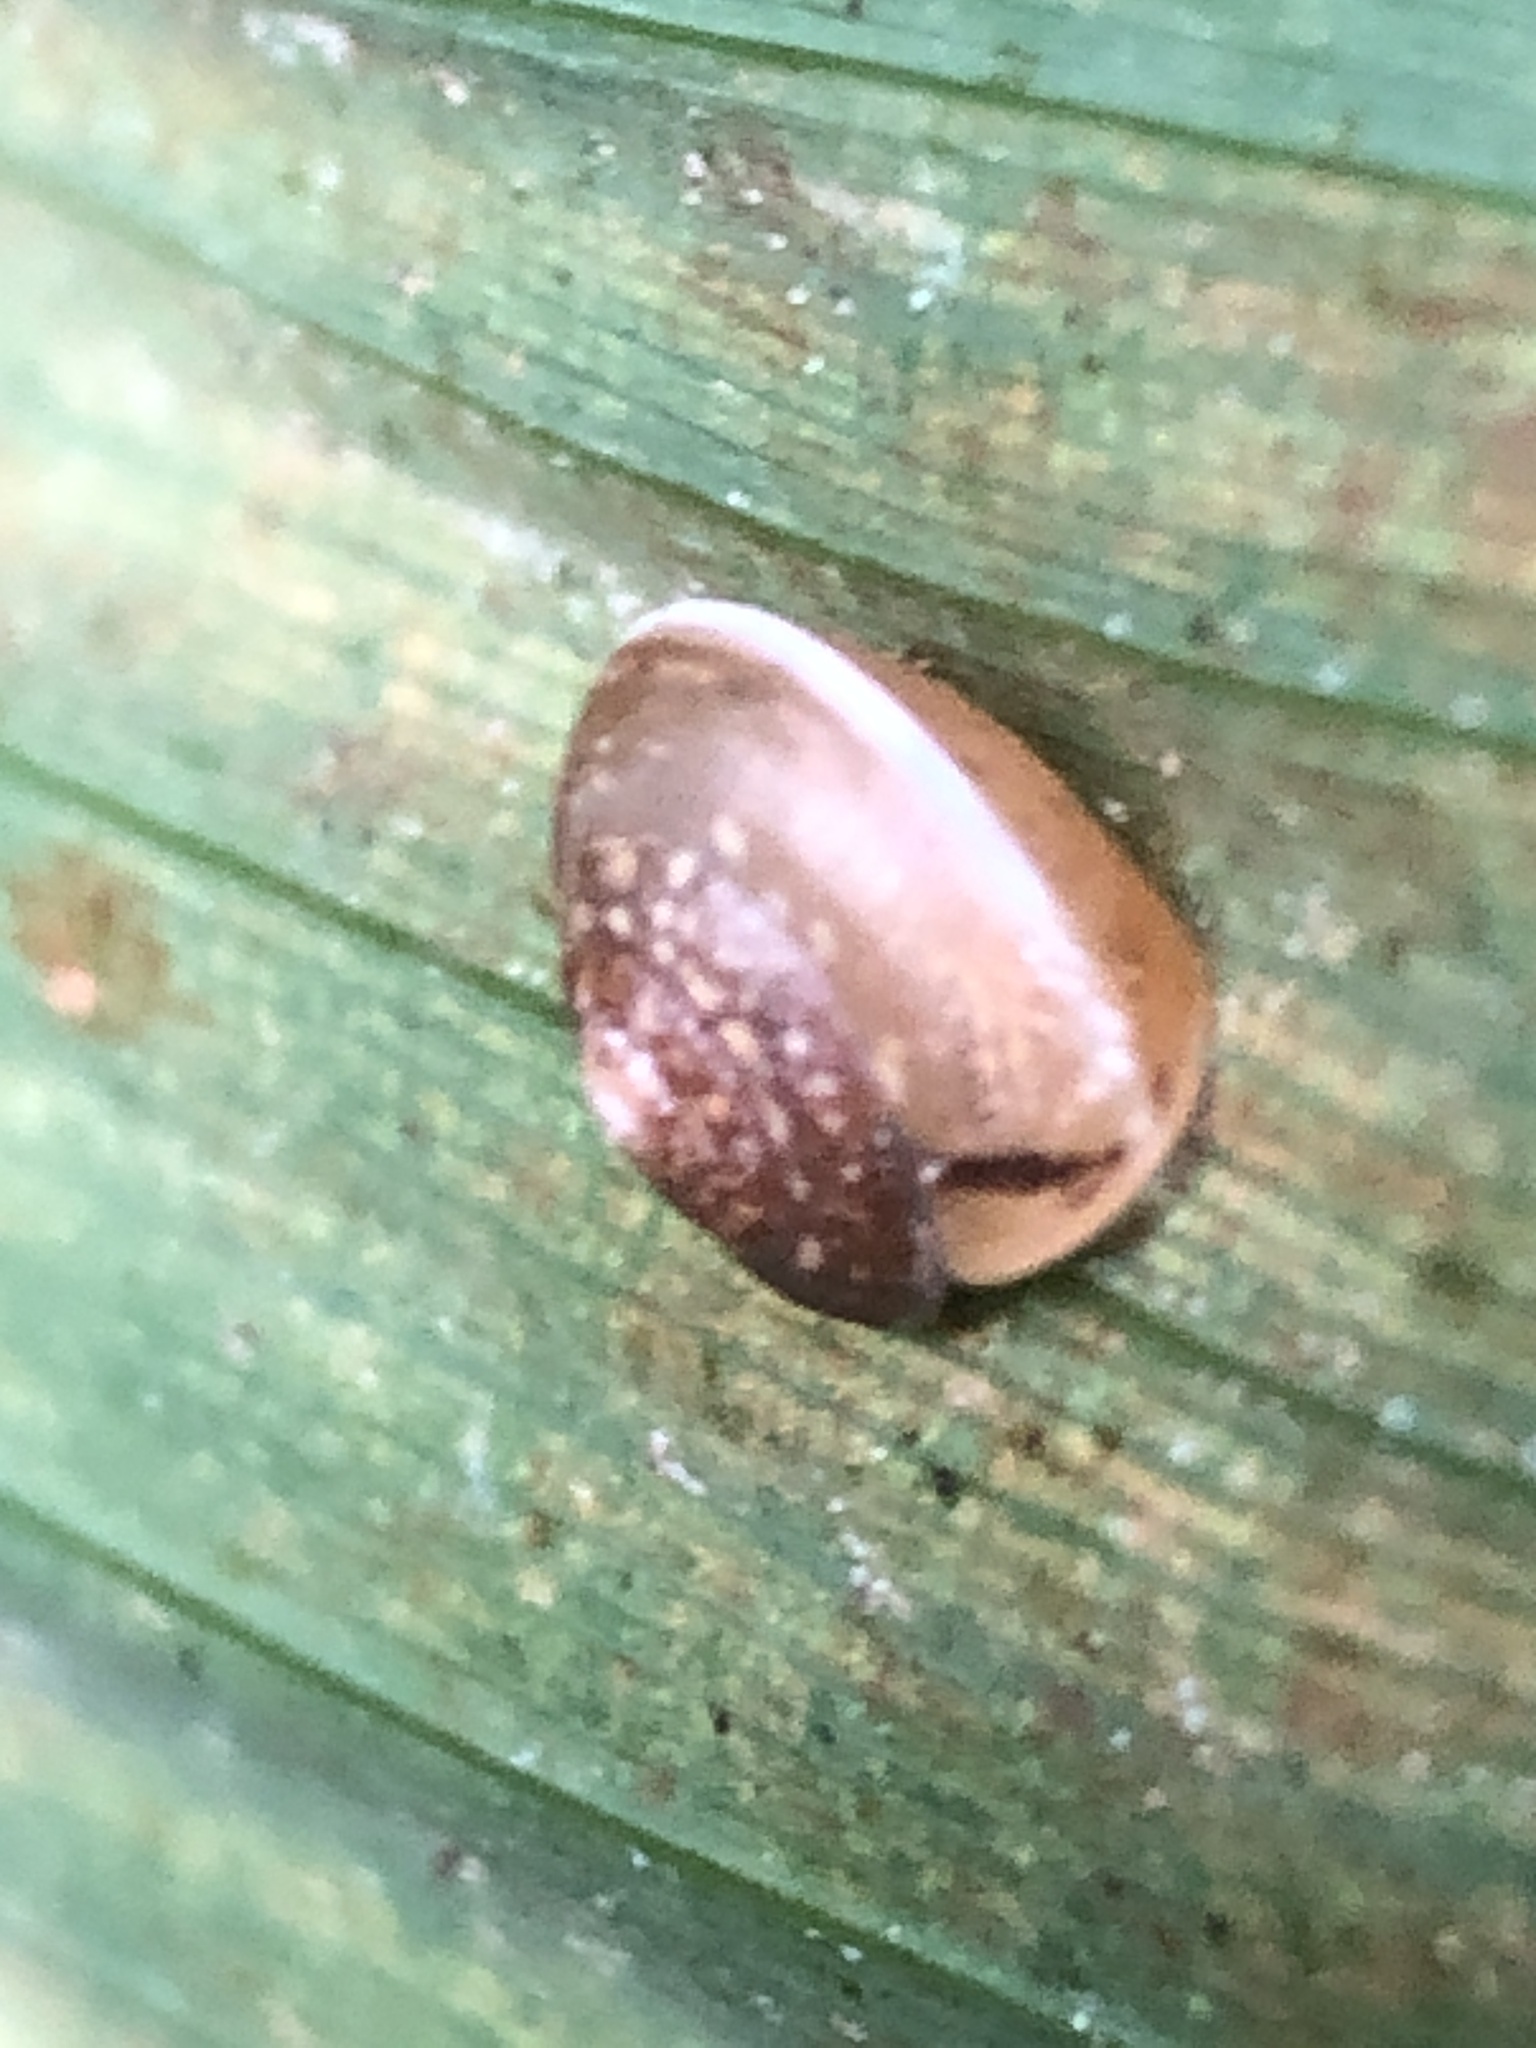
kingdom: Animalia
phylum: Mollusca
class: Gastropoda
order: Stylommatophora
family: Hygromiidae
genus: Hygromia
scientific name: Hygromia cinctella
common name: Girdled snail
